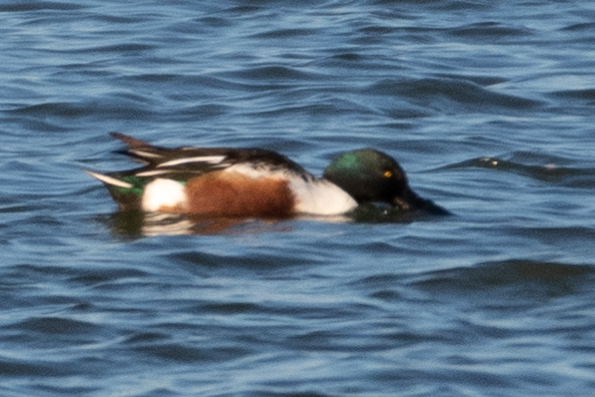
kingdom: Animalia
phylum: Chordata
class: Aves
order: Anseriformes
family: Anatidae
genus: Spatula
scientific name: Spatula clypeata
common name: Northern shoveler
